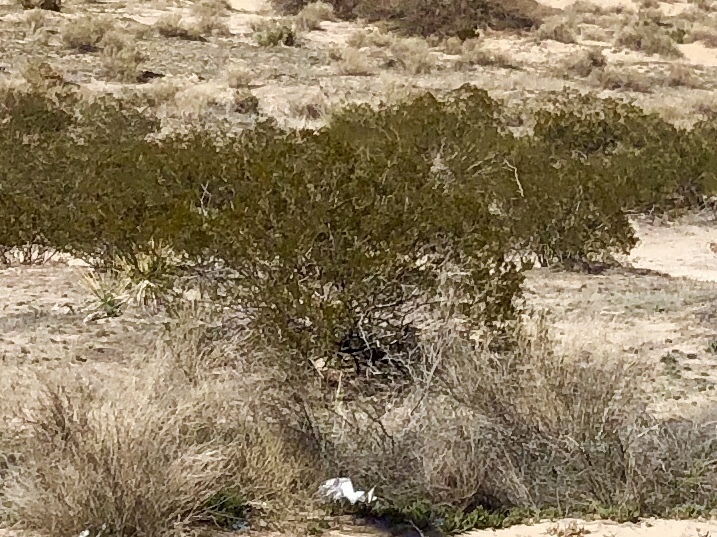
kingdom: Plantae
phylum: Tracheophyta
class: Magnoliopsida
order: Zygophyllales
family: Zygophyllaceae
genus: Larrea
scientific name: Larrea tridentata
